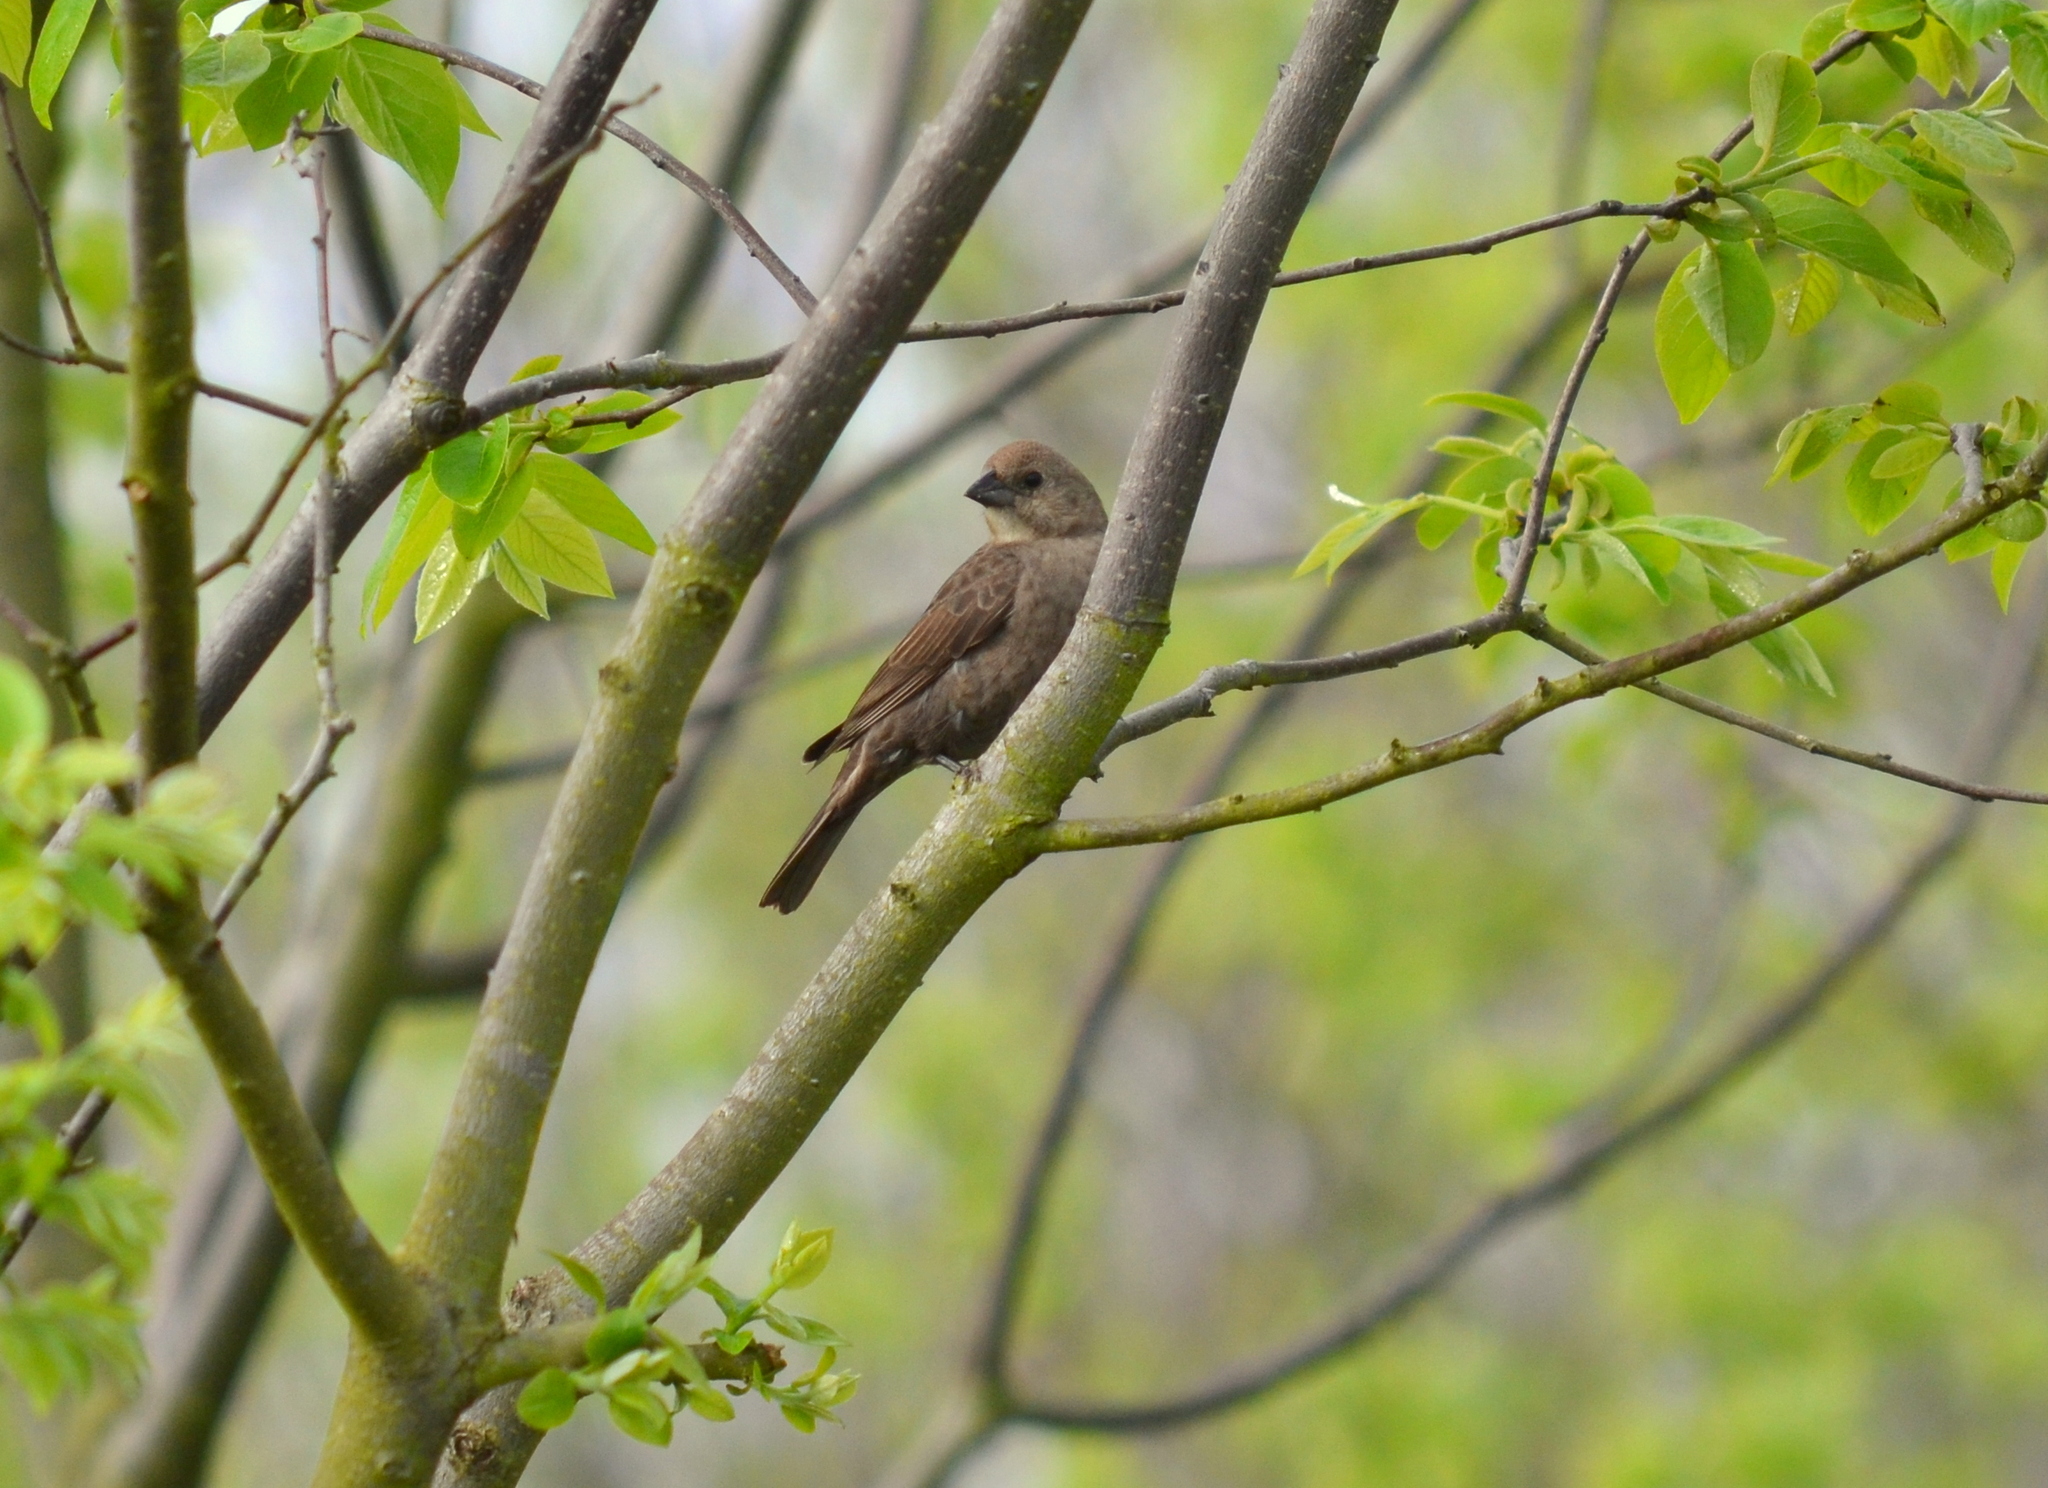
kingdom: Animalia
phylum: Chordata
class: Aves
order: Passeriformes
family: Icteridae
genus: Molothrus
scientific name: Molothrus ater
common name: Brown-headed cowbird
